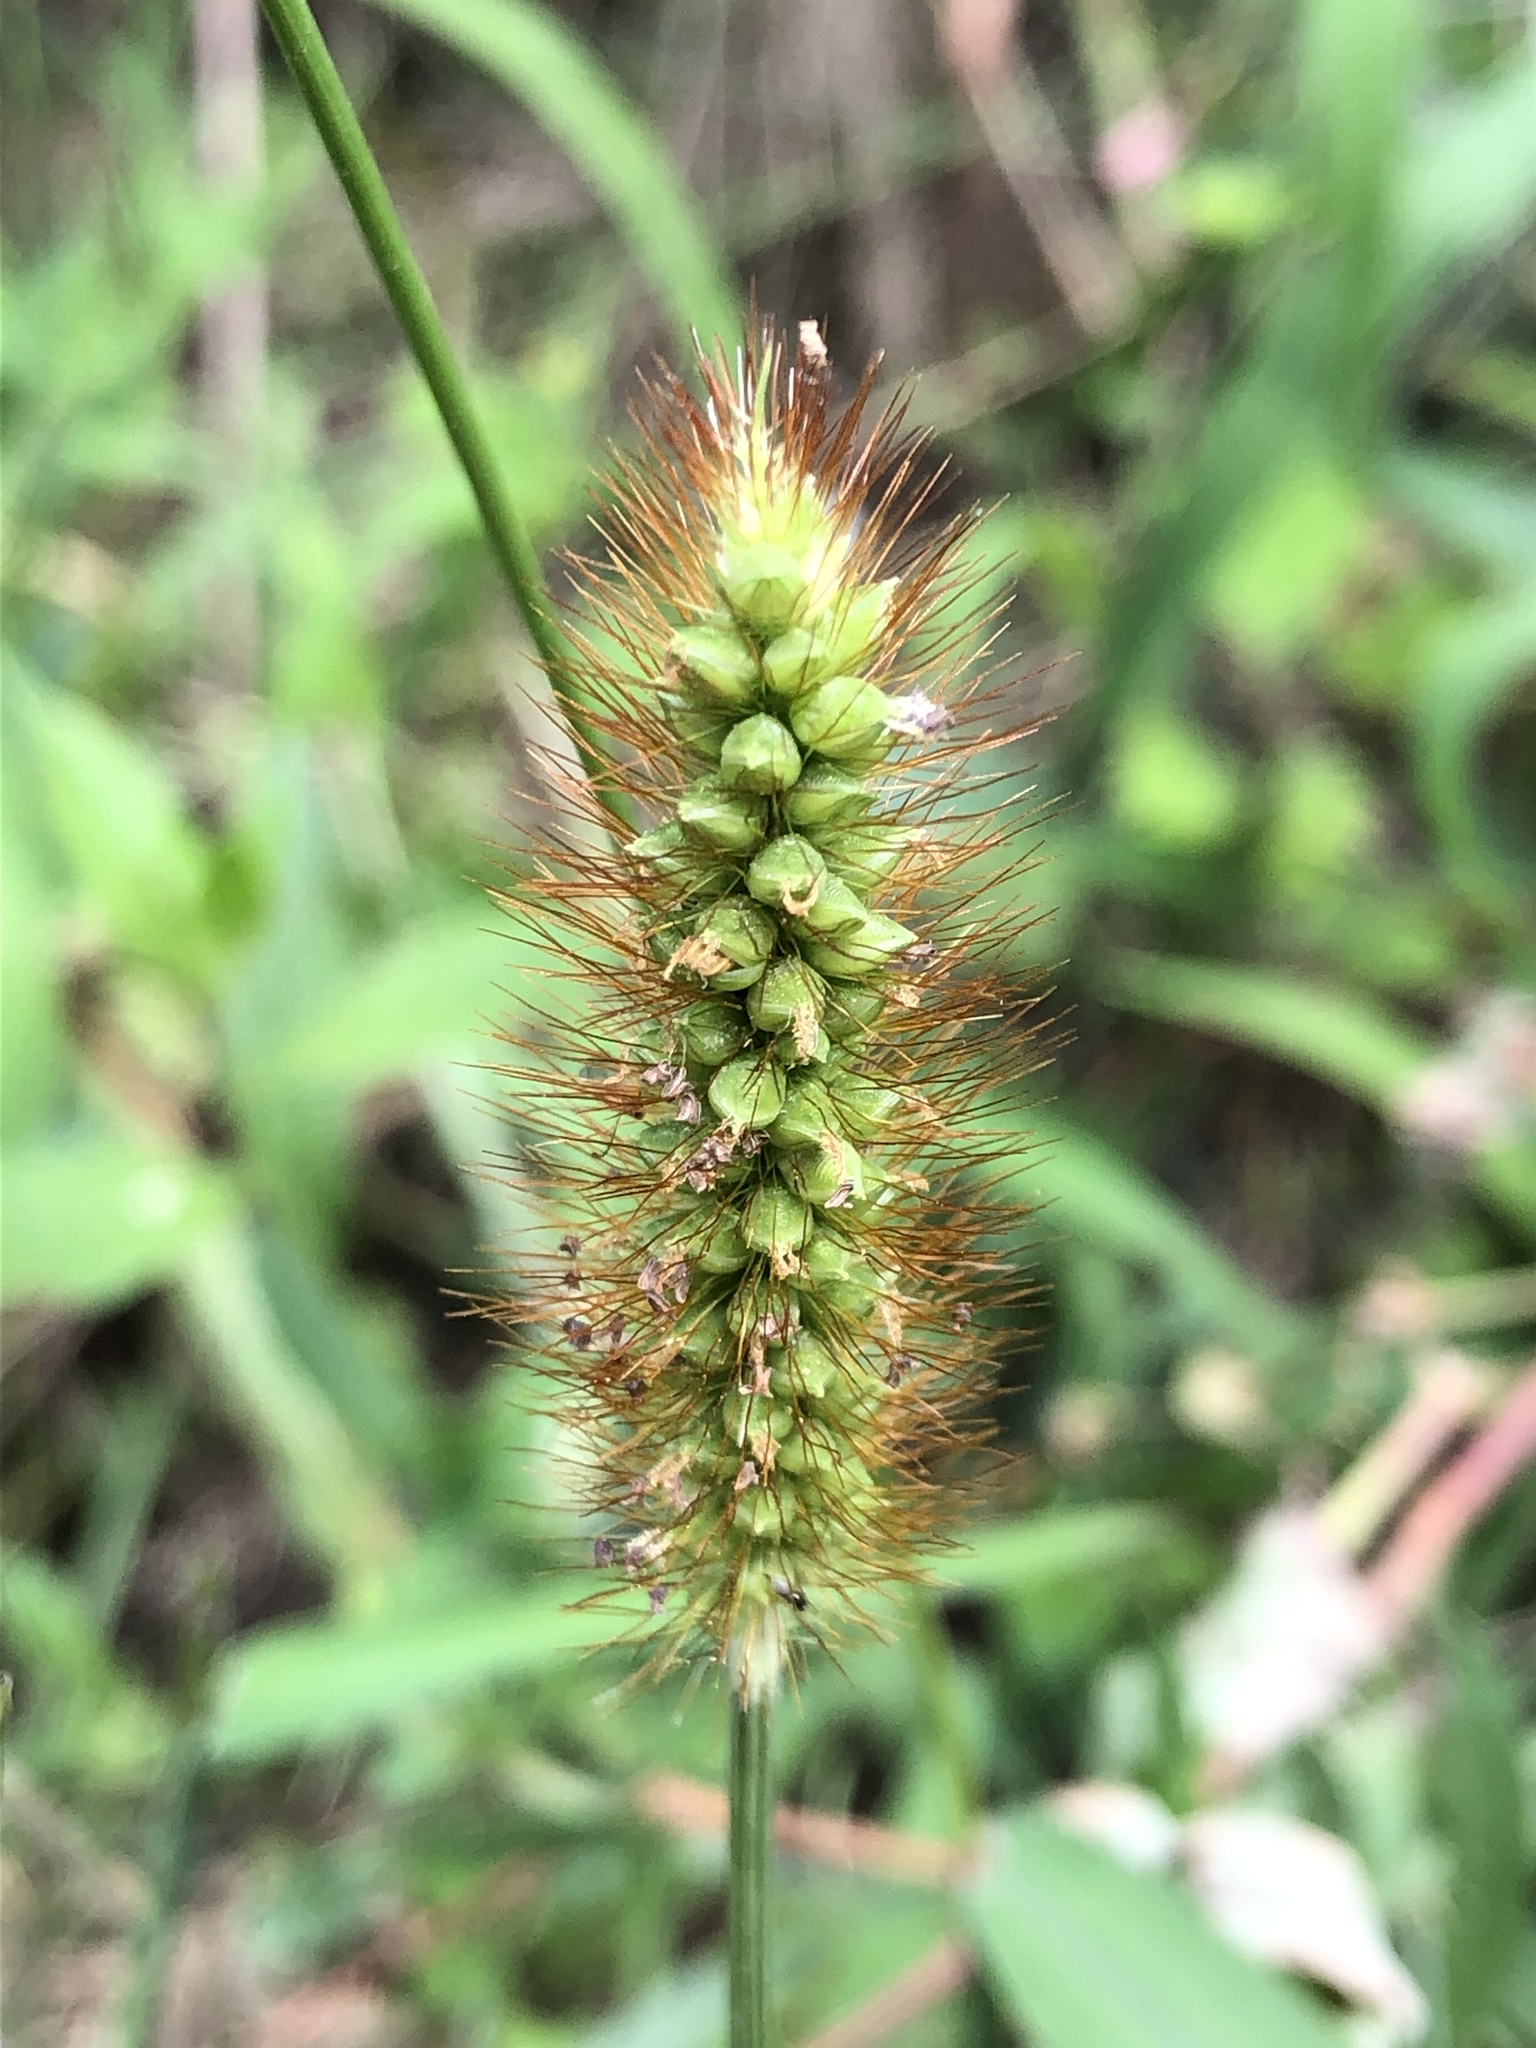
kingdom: Plantae
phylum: Tracheophyta
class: Liliopsida
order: Poales
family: Poaceae
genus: Setaria
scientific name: Setaria pumila
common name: Yellow bristle-grass
